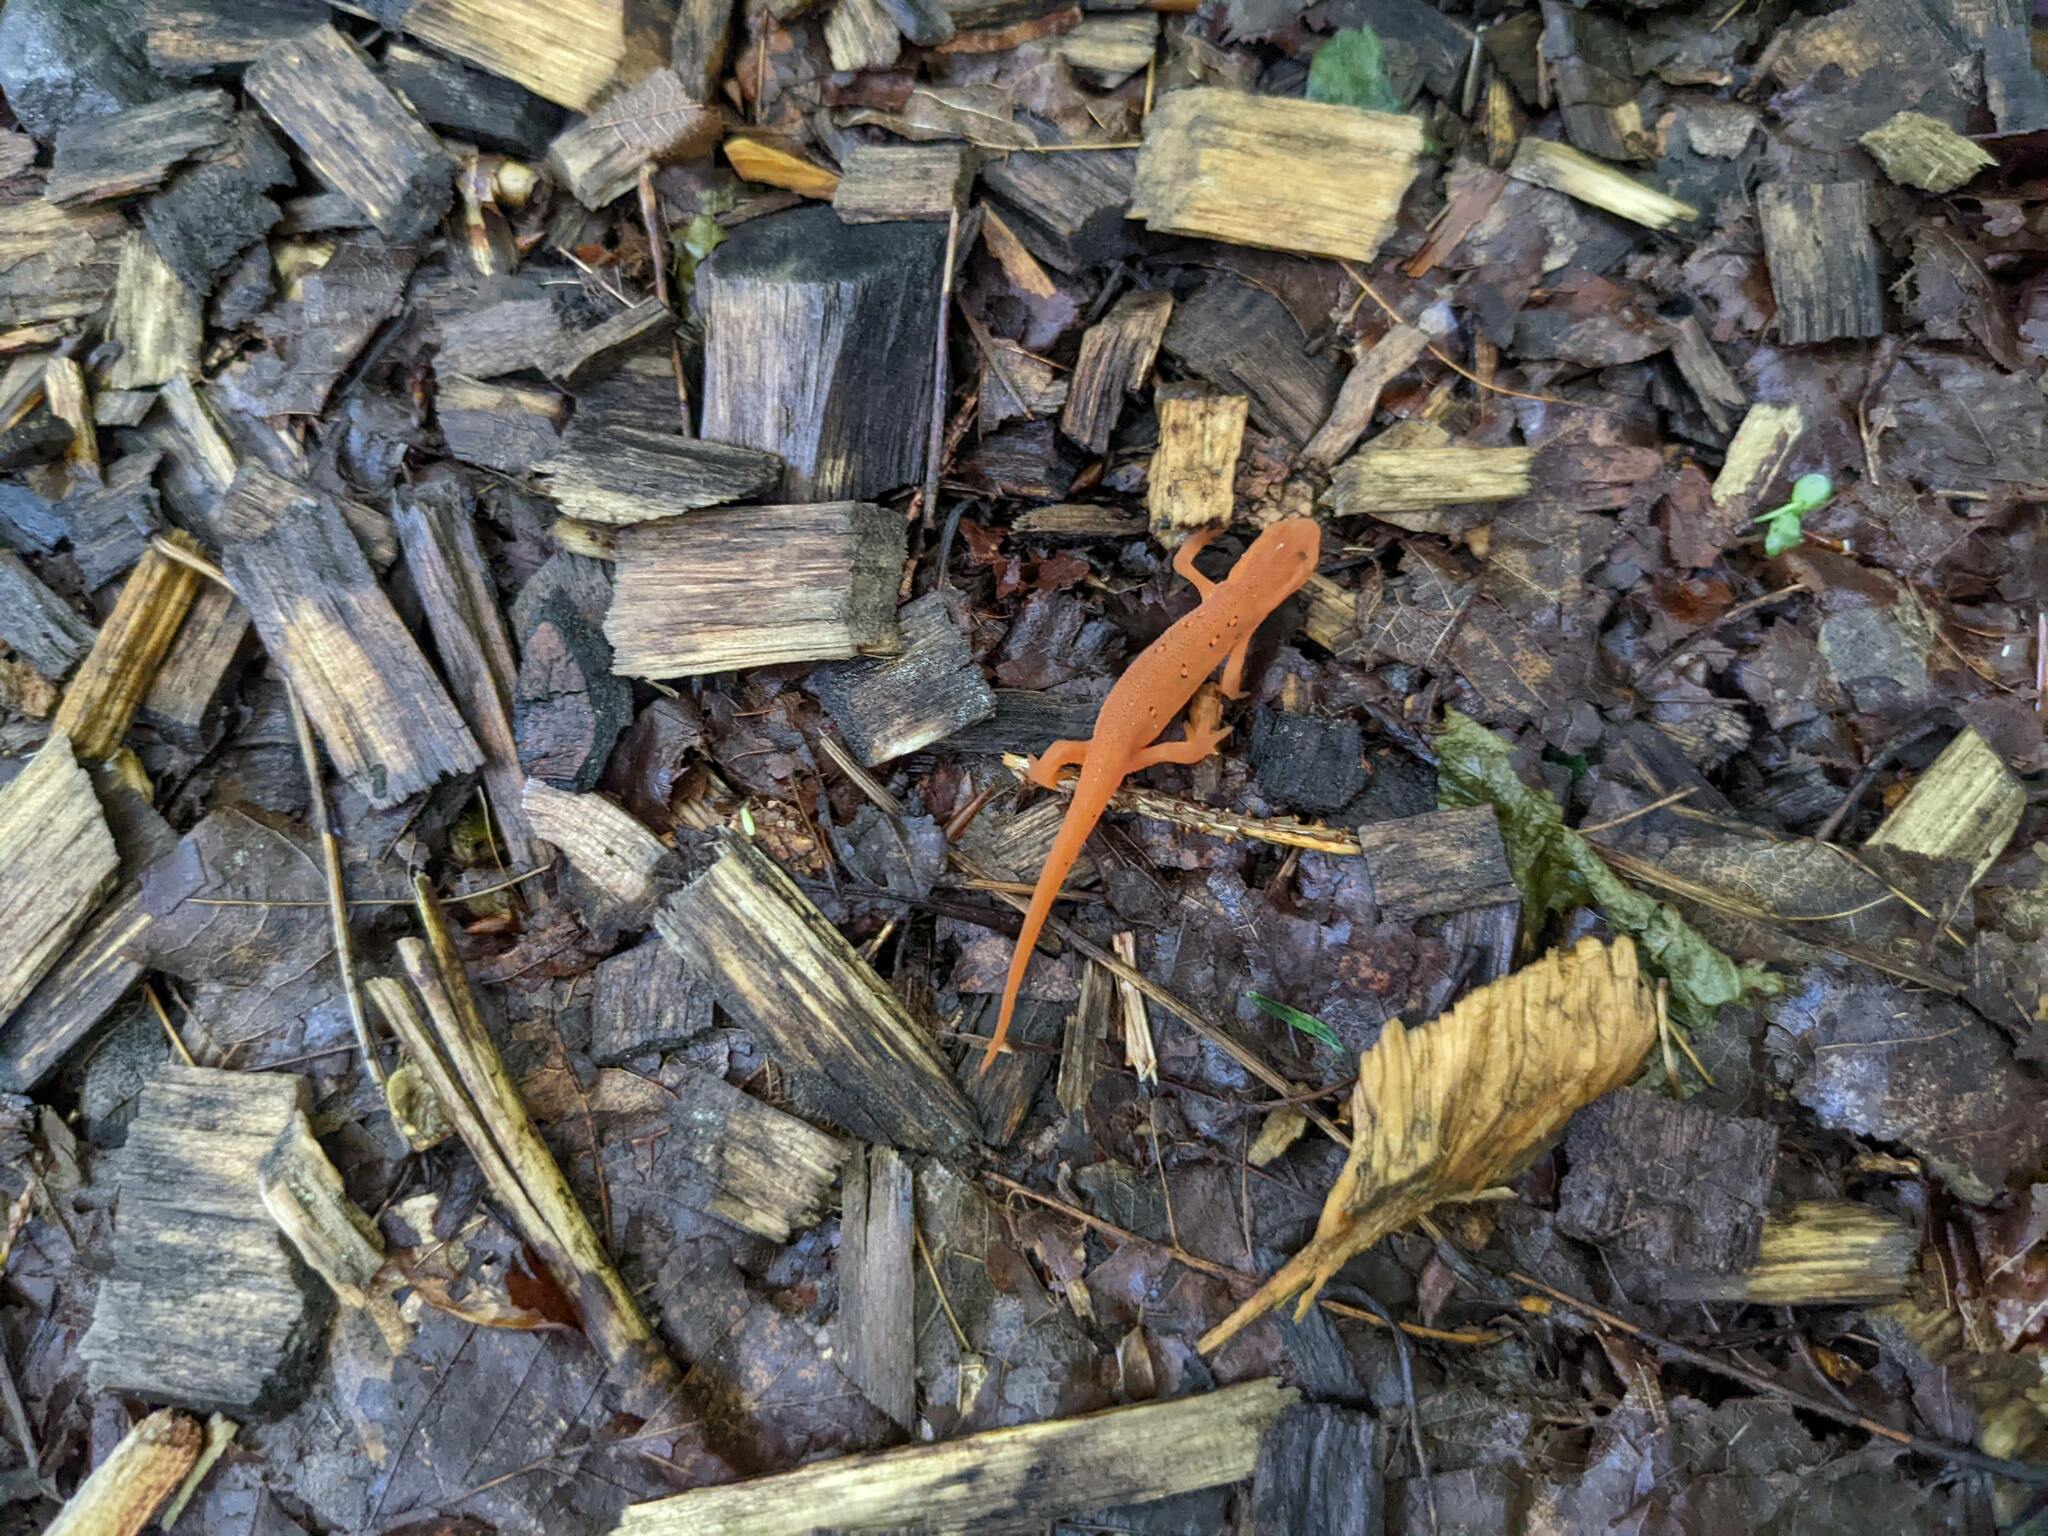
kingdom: Animalia
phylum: Chordata
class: Amphibia
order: Caudata
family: Salamandridae
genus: Notophthalmus
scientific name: Notophthalmus viridescens
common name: Eastern newt
